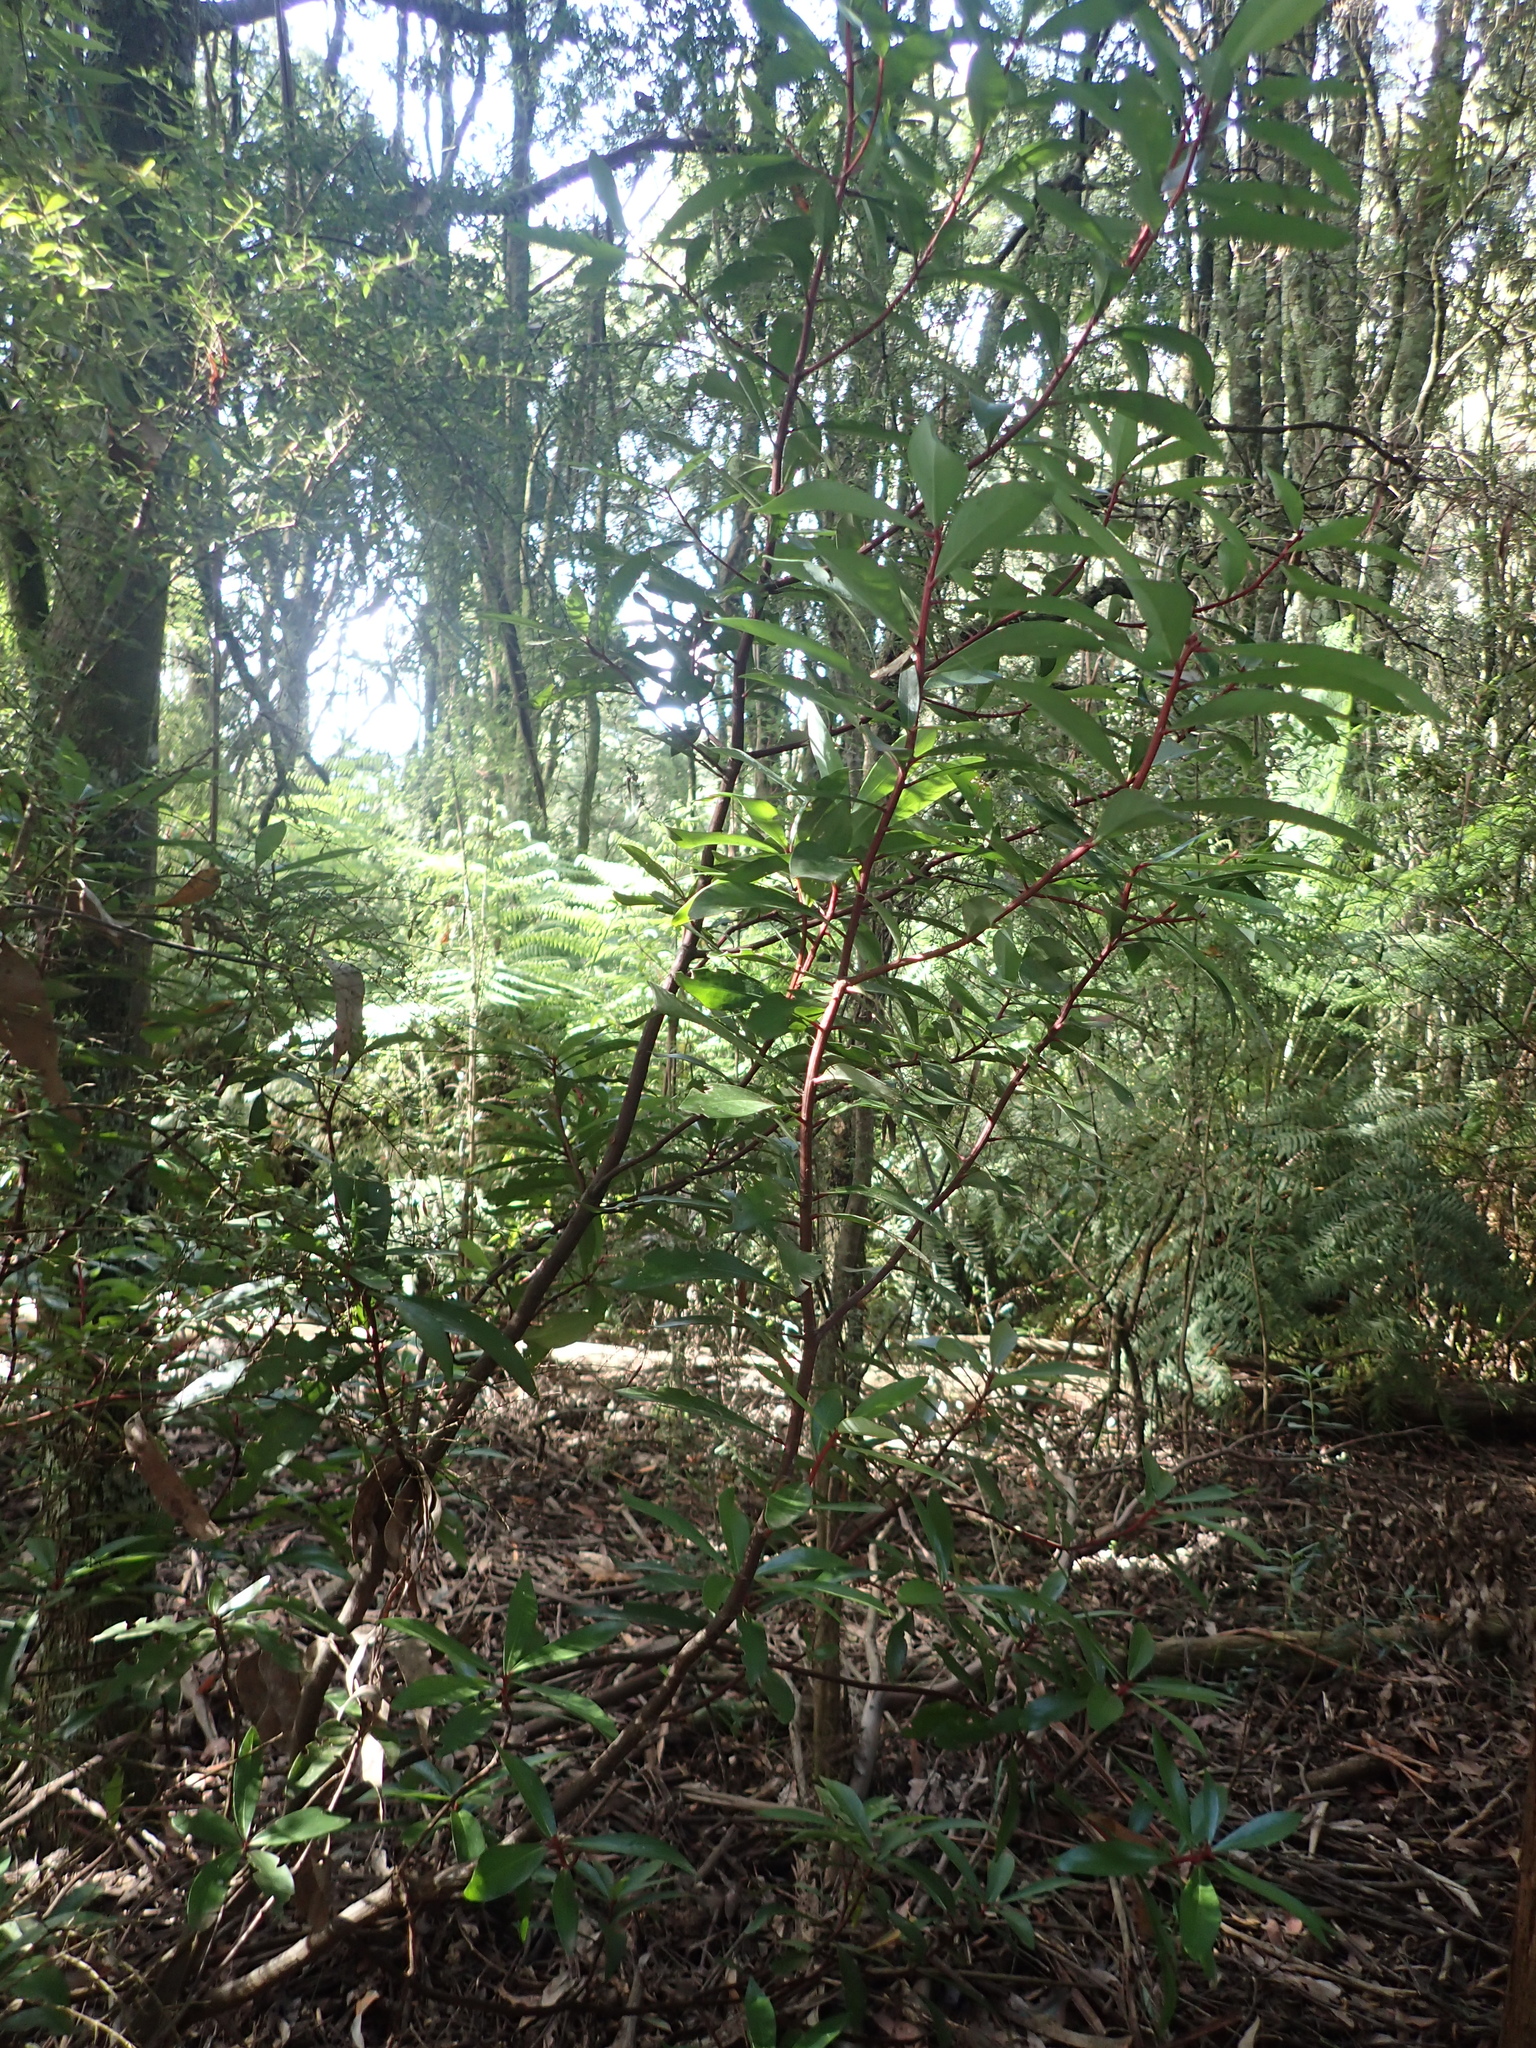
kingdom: Plantae
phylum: Tracheophyta
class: Magnoliopsida
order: Canellales
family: Winteraceae
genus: Drimys
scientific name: Drimys aromatica
